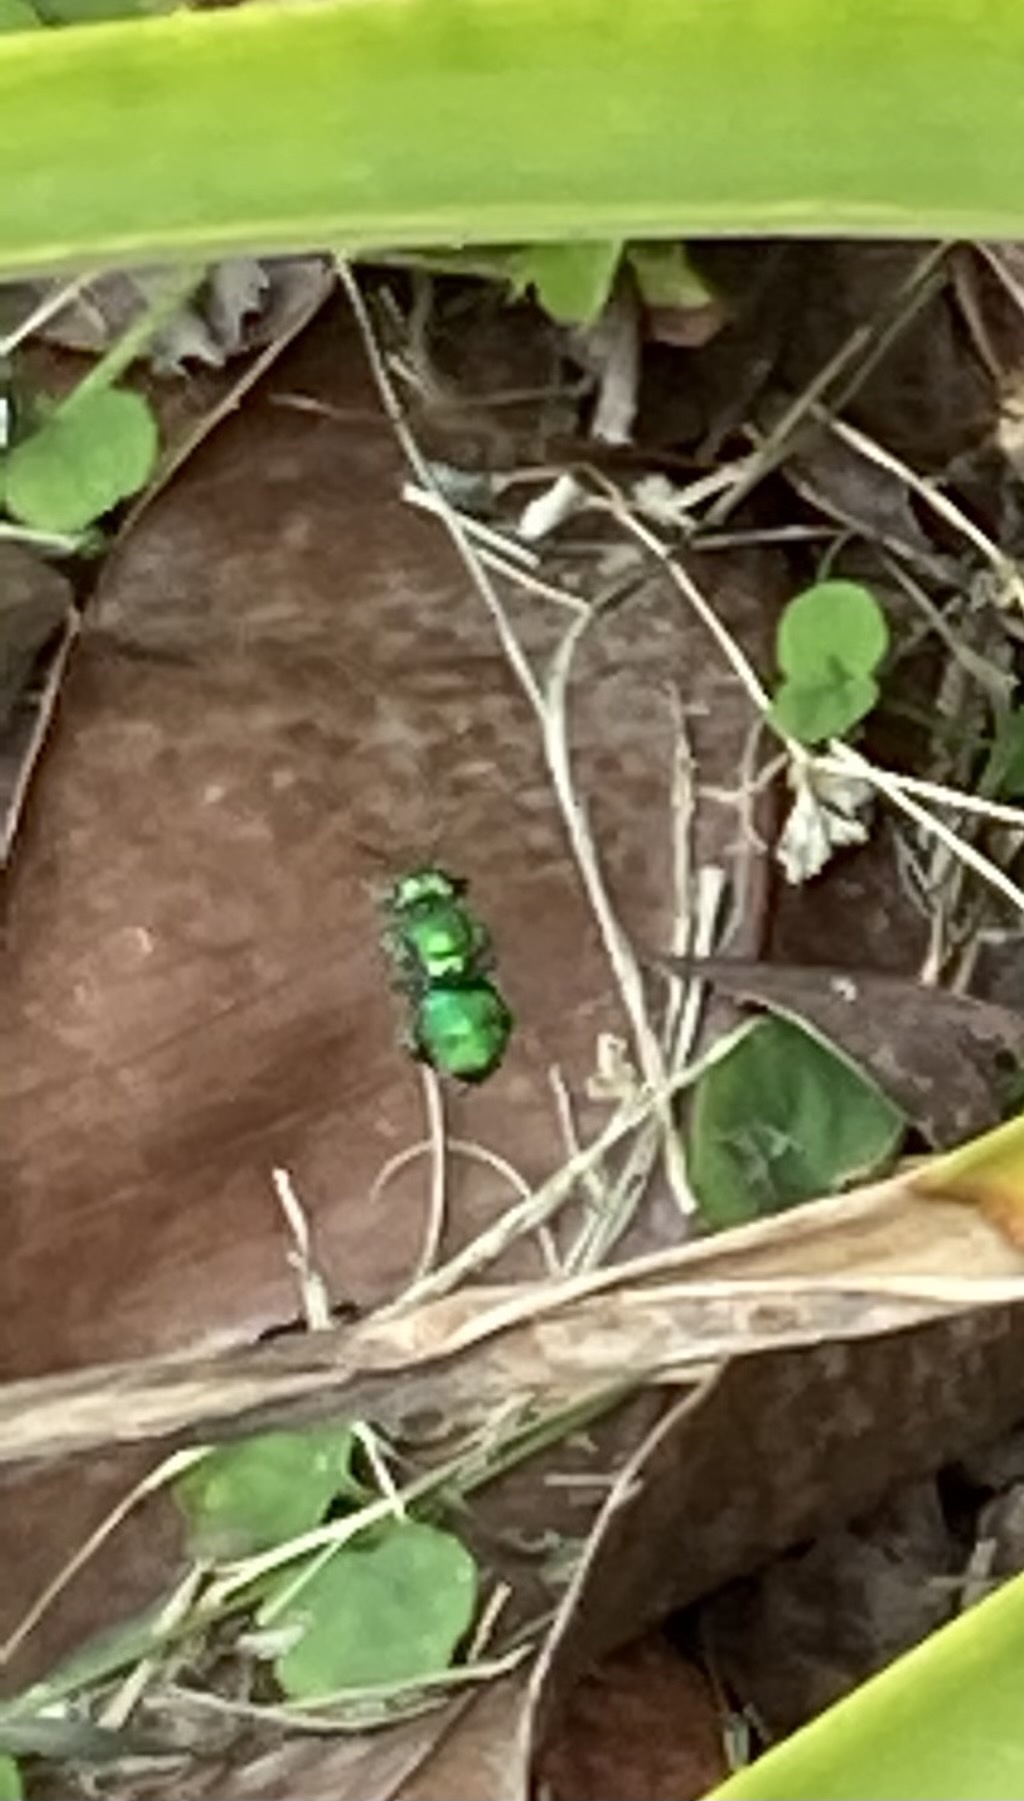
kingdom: Animalia
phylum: Arthropoda
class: Insecta
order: Hymenoptera
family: Apidae
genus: Euglossa
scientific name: Euglossa dilemma
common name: Green orchid bee
